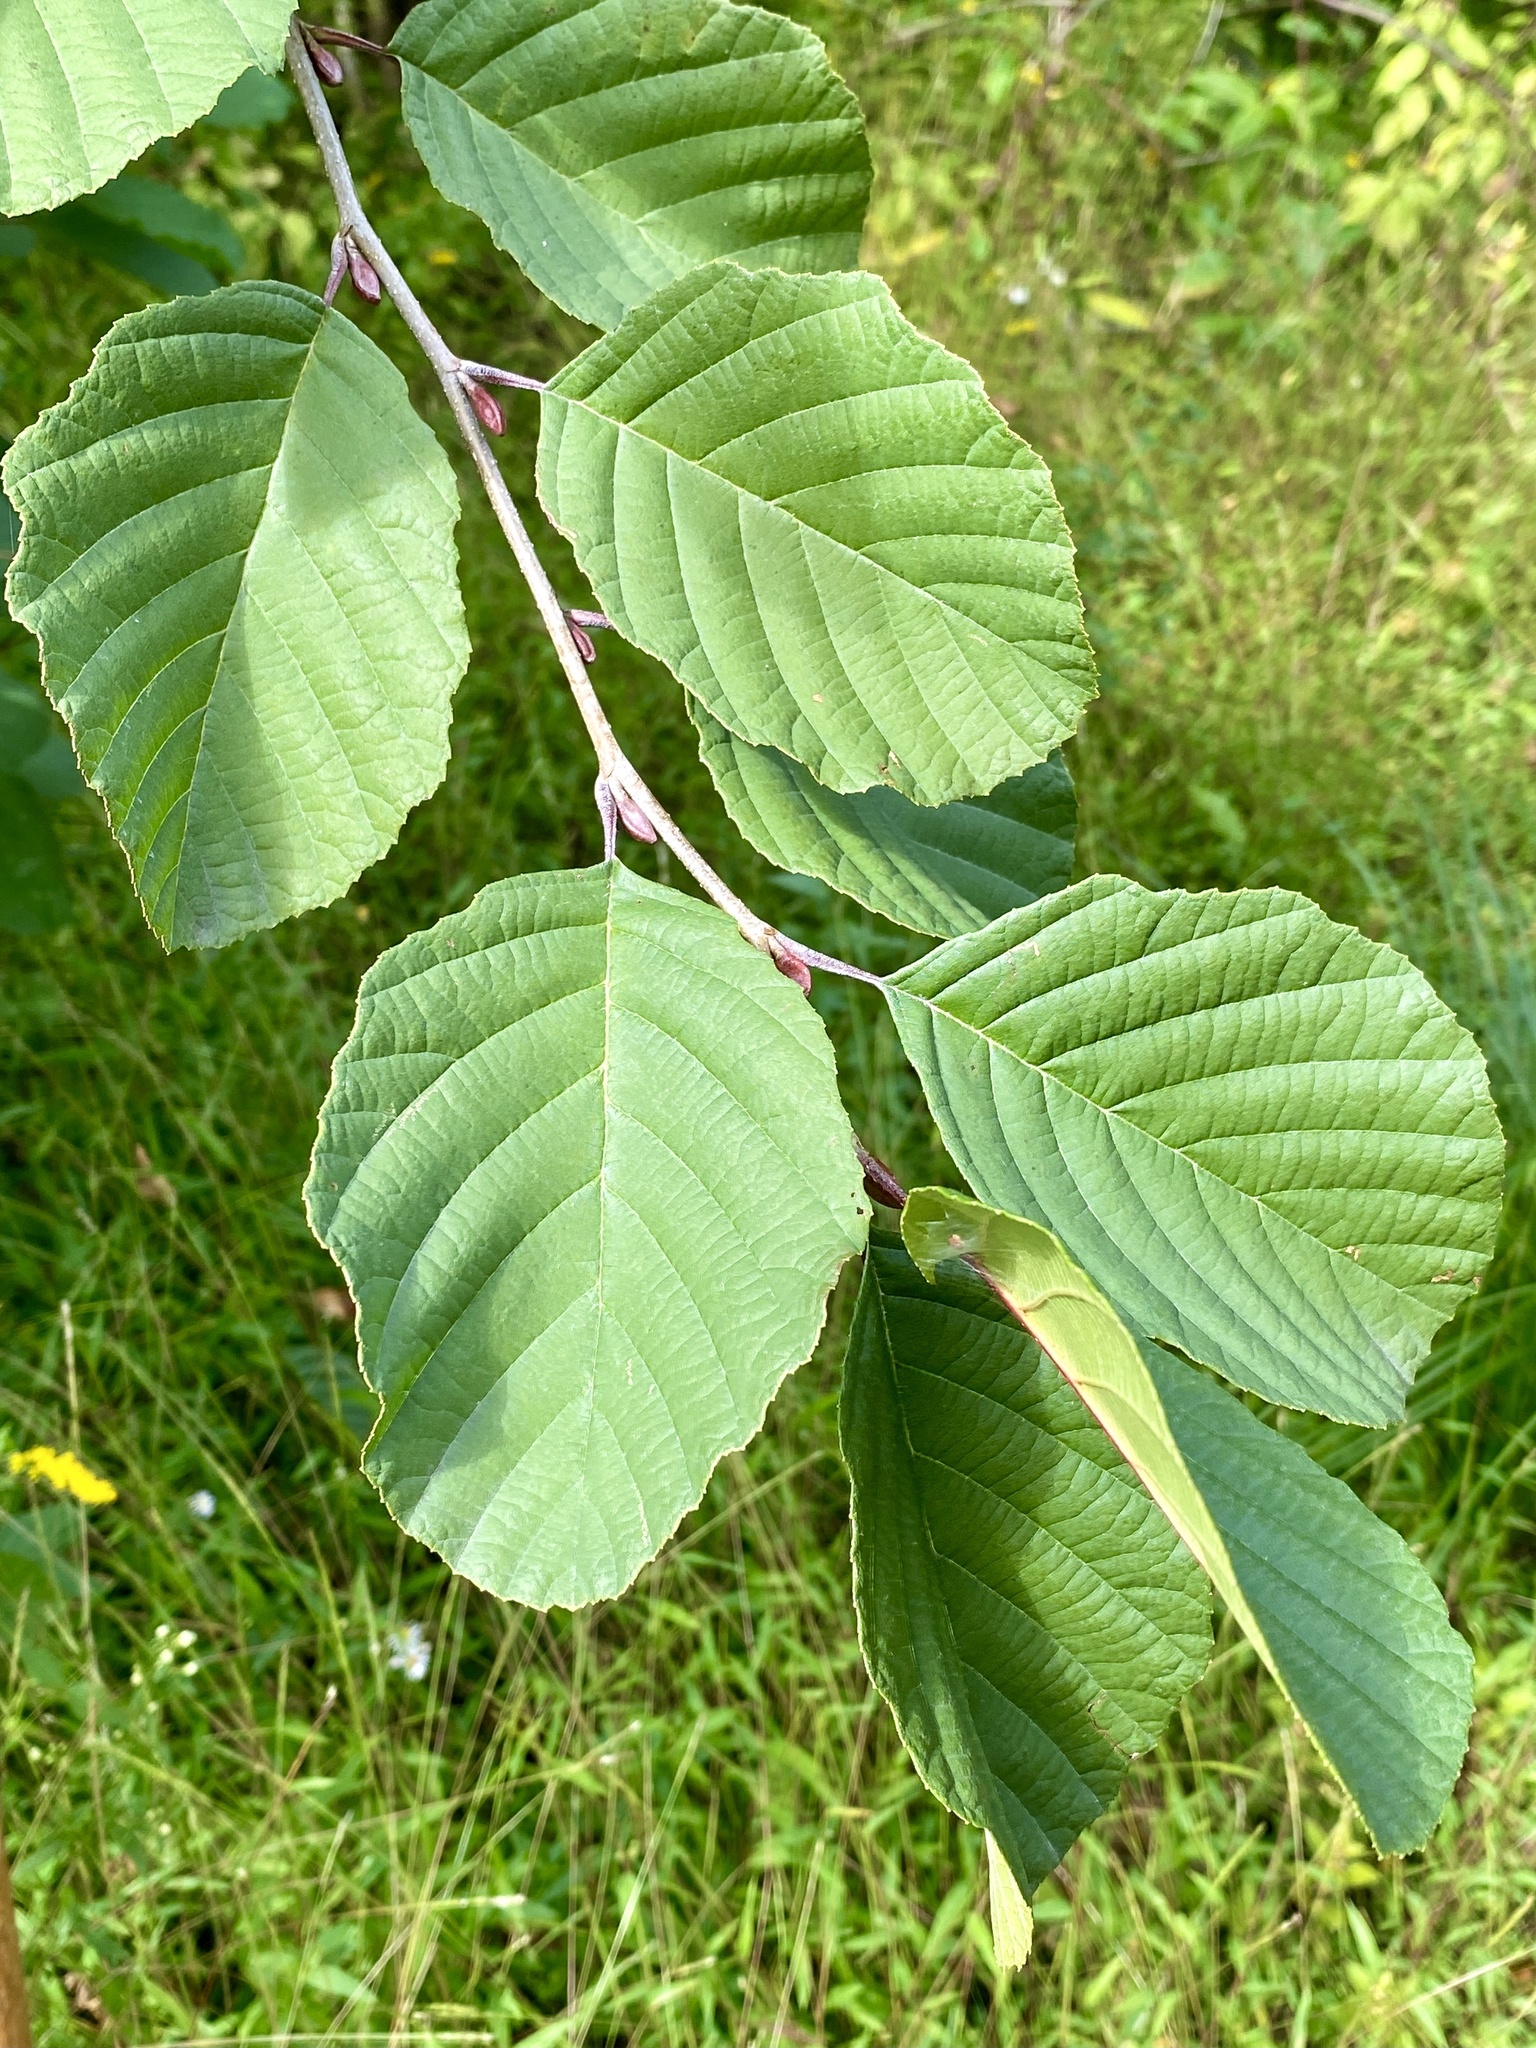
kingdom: Plantae
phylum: Tracheophyta
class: Magnoliopsida
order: Fagales
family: Betulaceae
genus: Alnus
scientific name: Alnus glutinosa
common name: Black alder
